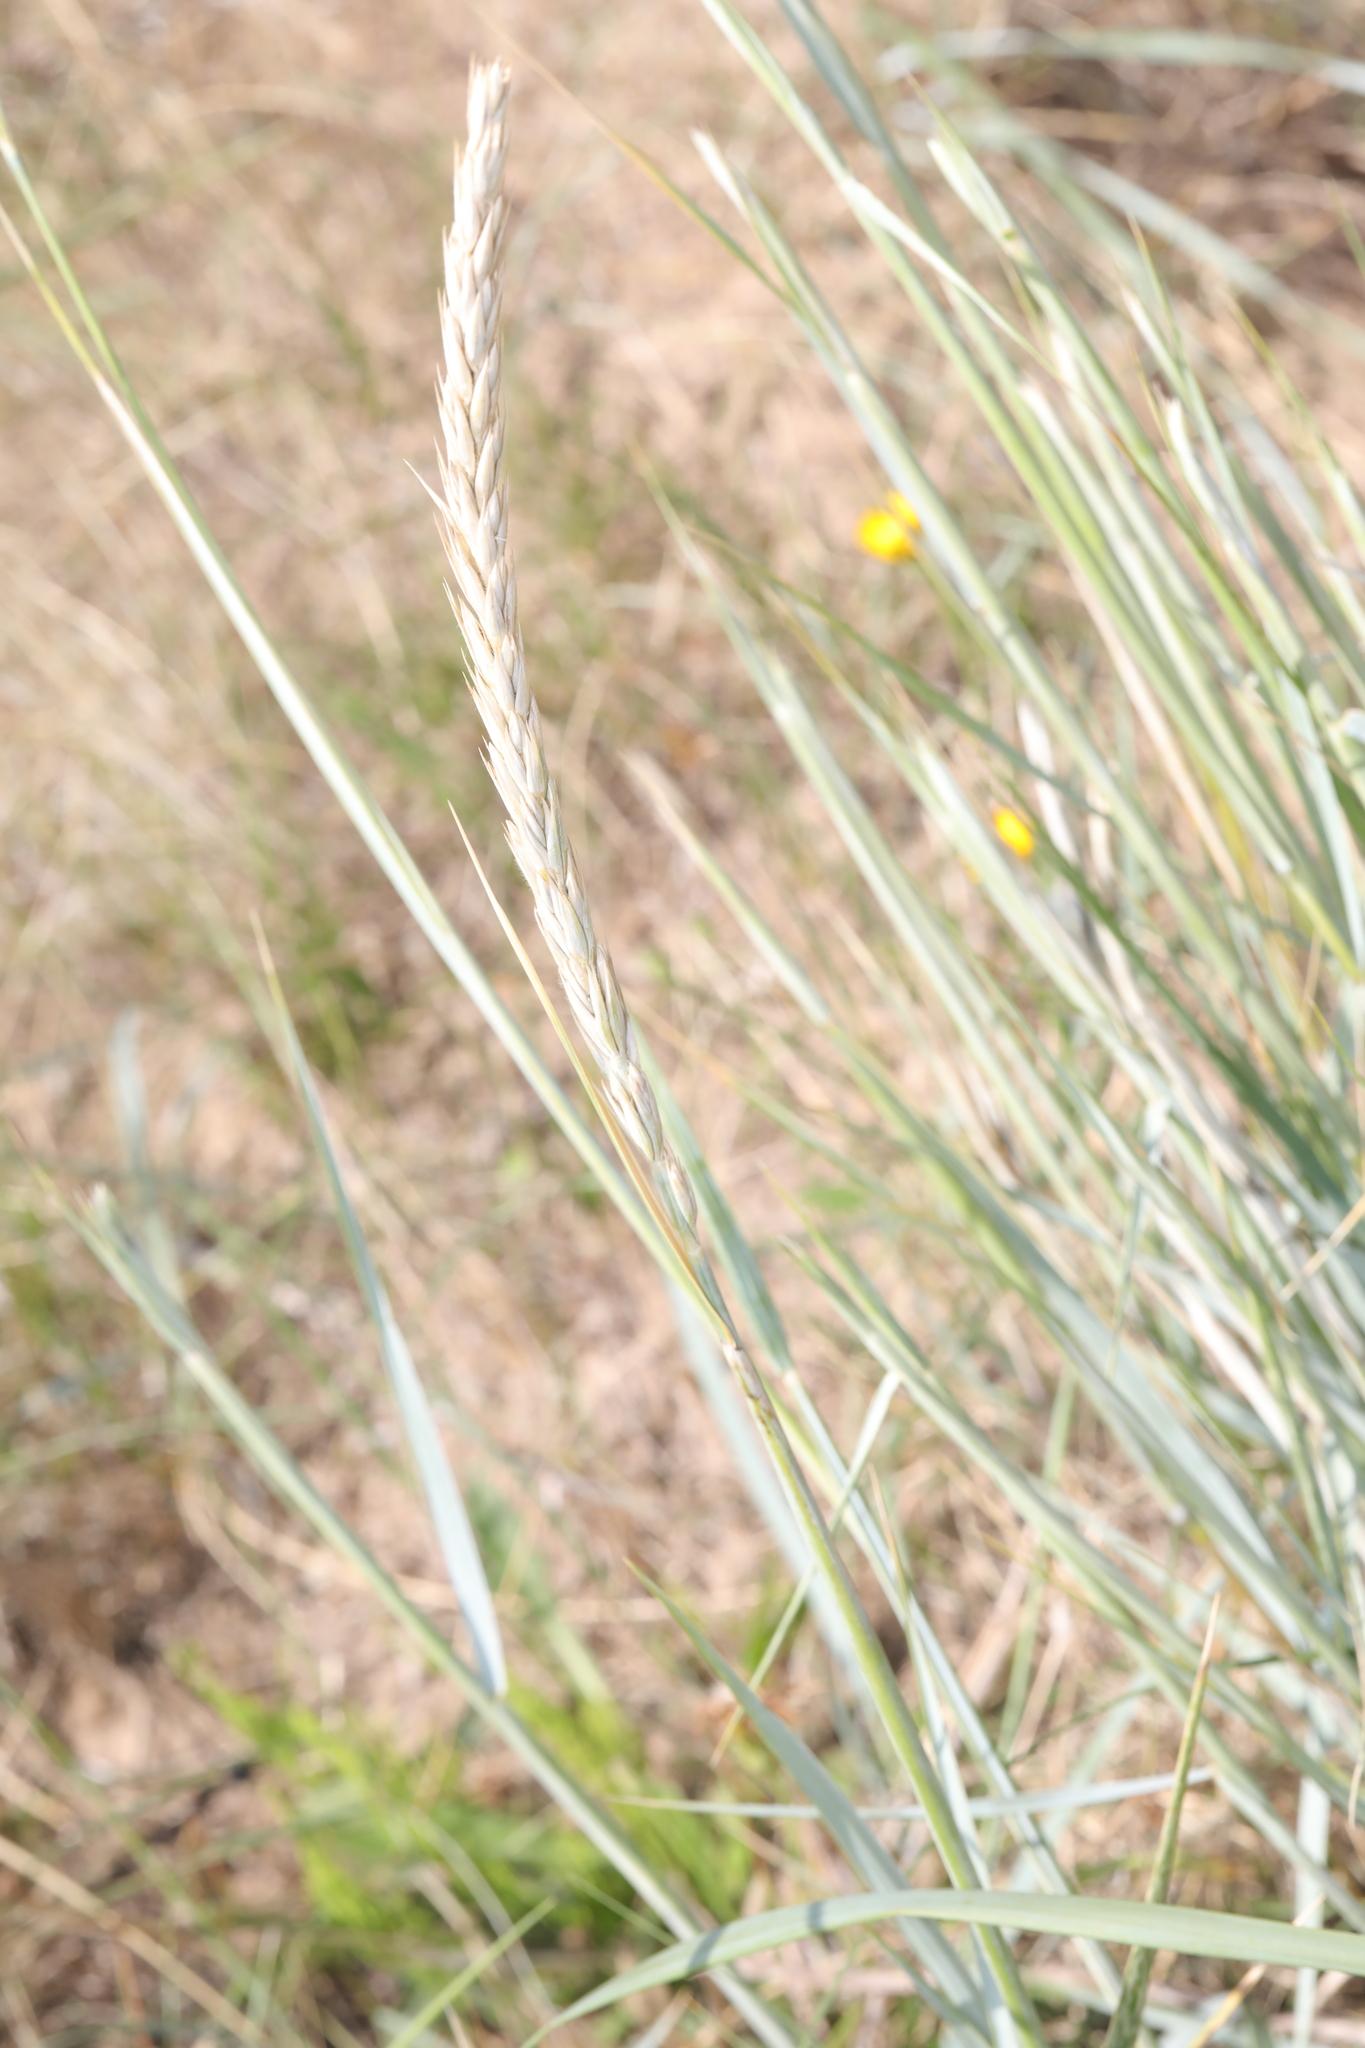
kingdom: Plantae
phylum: Tracheophyta
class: Liliopsida
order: Poales
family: Poaceae
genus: Leymus
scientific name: Leymus arenarius
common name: Lyme-grass
